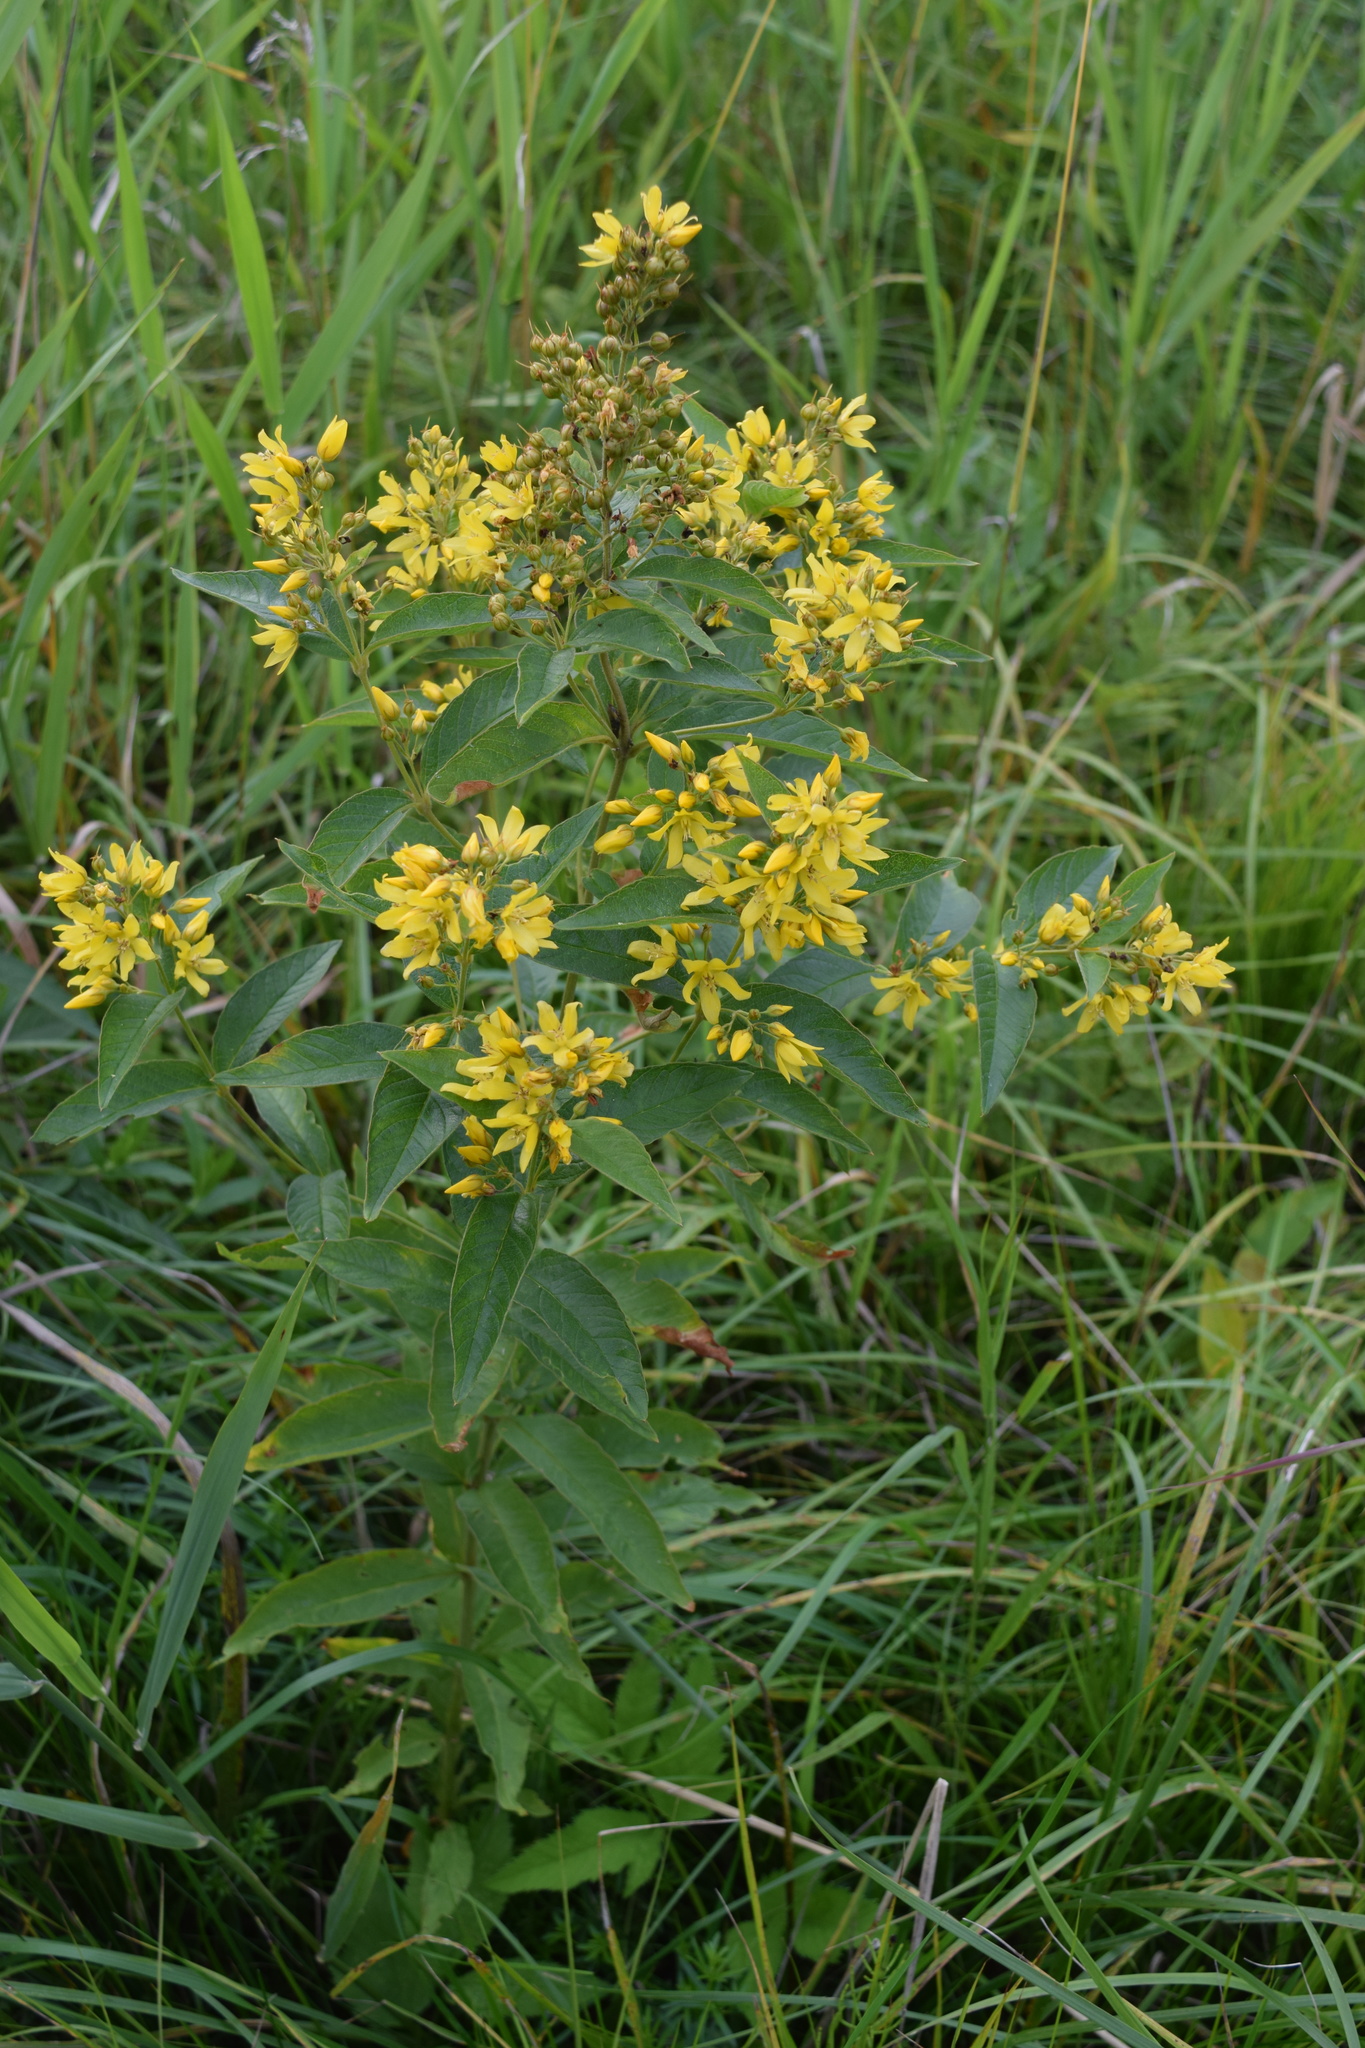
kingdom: Plantae
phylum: Tracheophyta
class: Magnoliopsida
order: Ericales
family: Primulaceae
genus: Lysimachia
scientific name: Lysimachia vulgaris
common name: Yellow loosestrife
